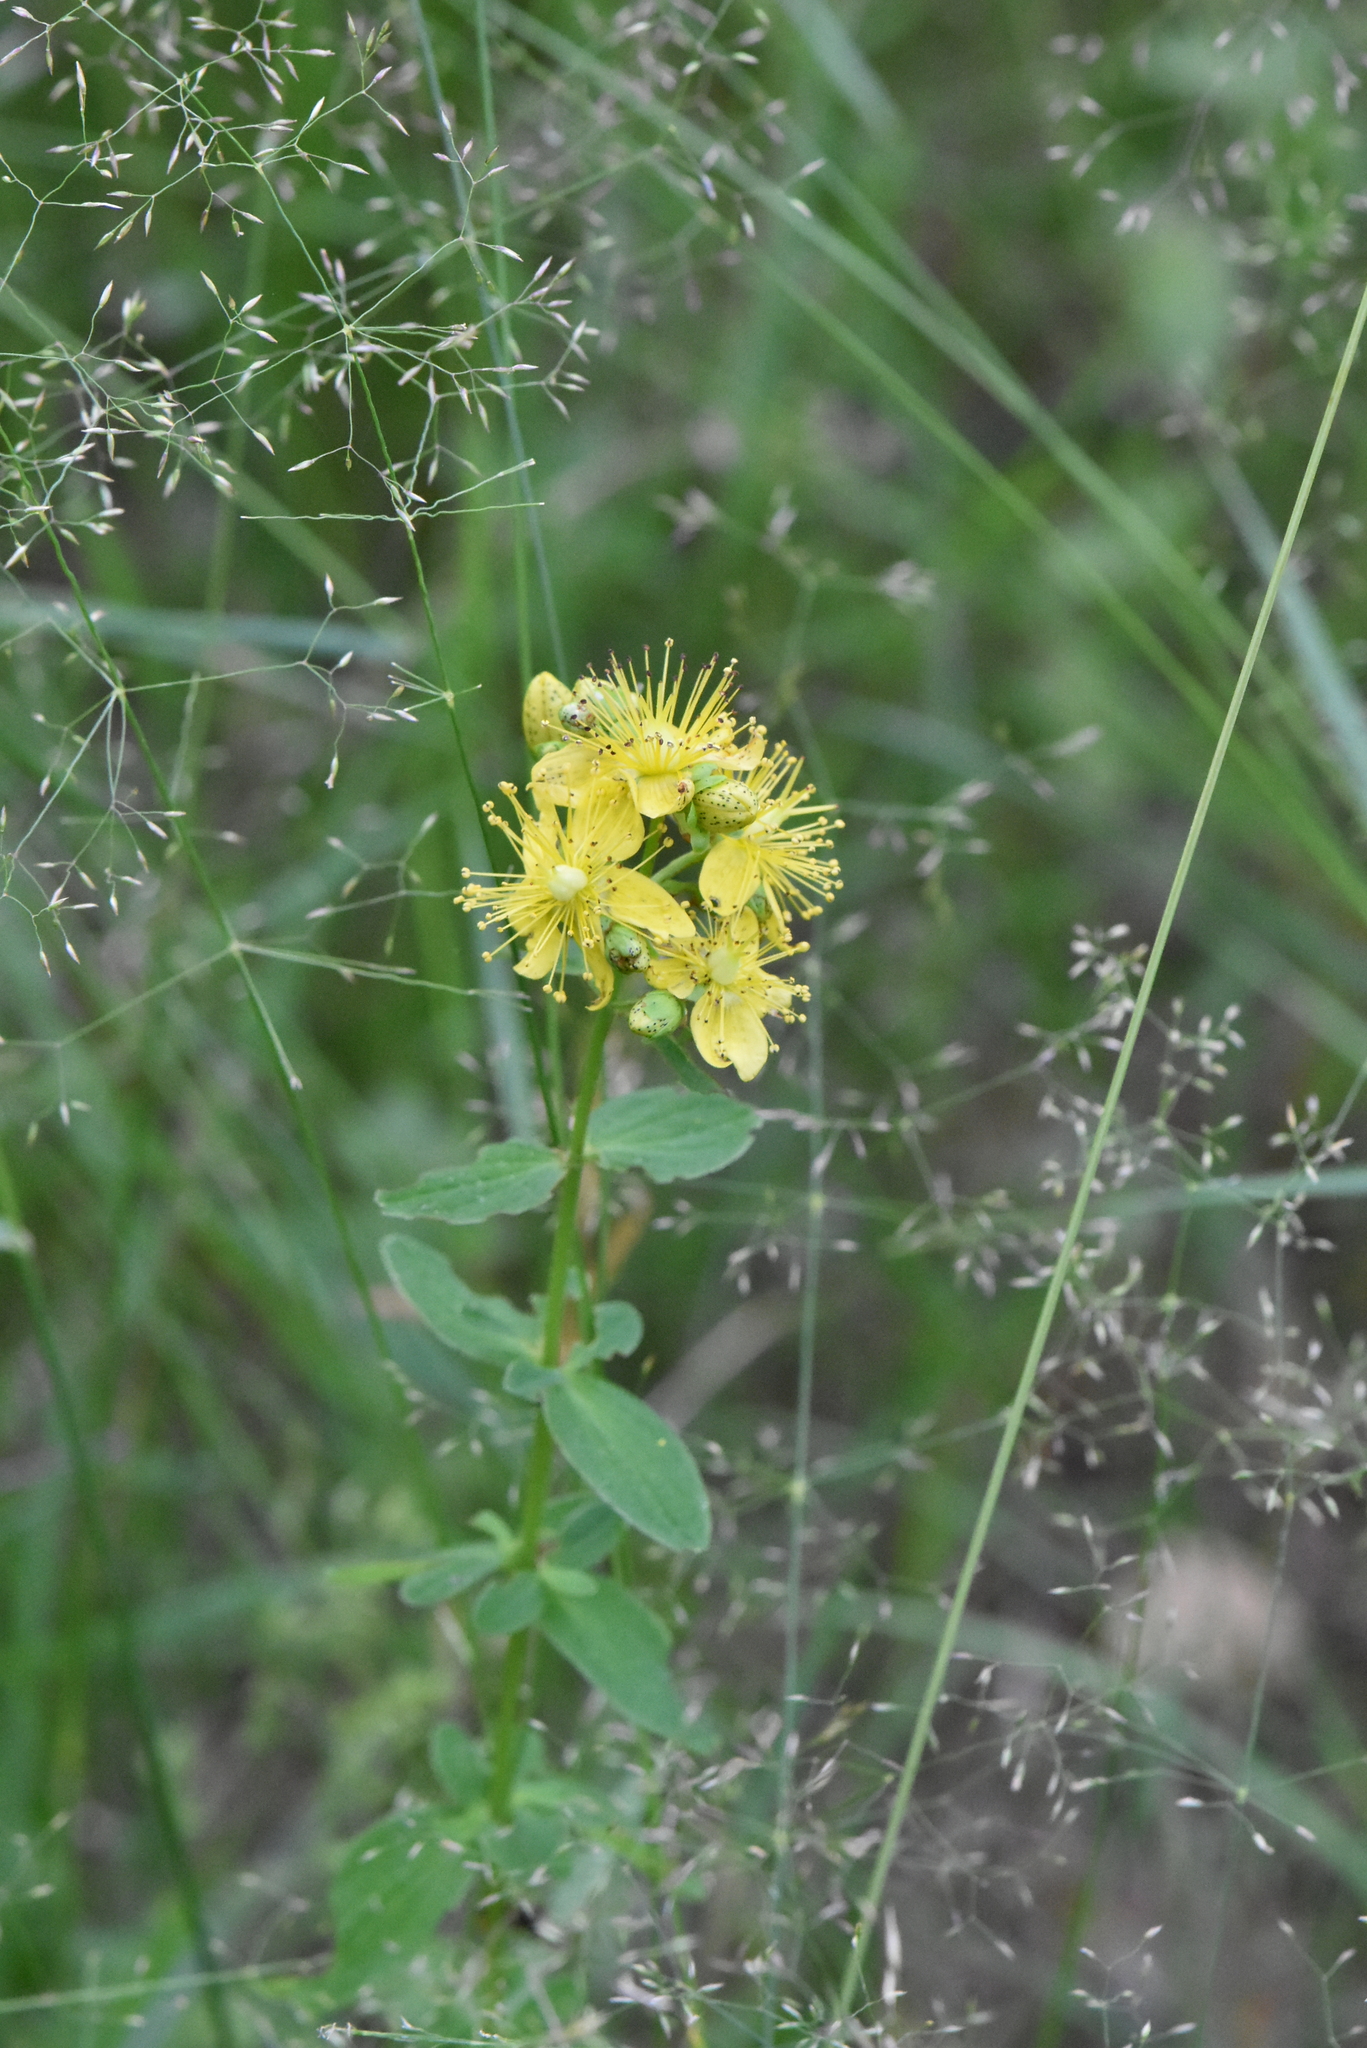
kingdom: Plantae
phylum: Tracheophyta
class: Magnoliopsida
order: Malpighiales
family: Hypericaceae
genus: Hypericum
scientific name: Hypericum maculatum
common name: Imperforate st. john's-wort
